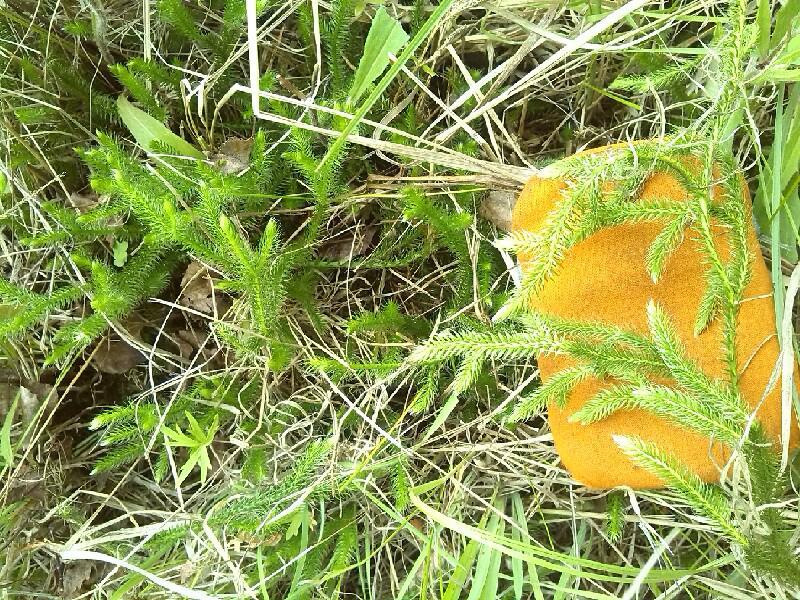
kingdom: Plantae
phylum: Tracheophyta
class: Lycopodiopsida
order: Lycopodiales
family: Lycopodiaceae
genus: Lycopodium
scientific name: Lycopodium clavatum
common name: Stag's-horn clubmoss
